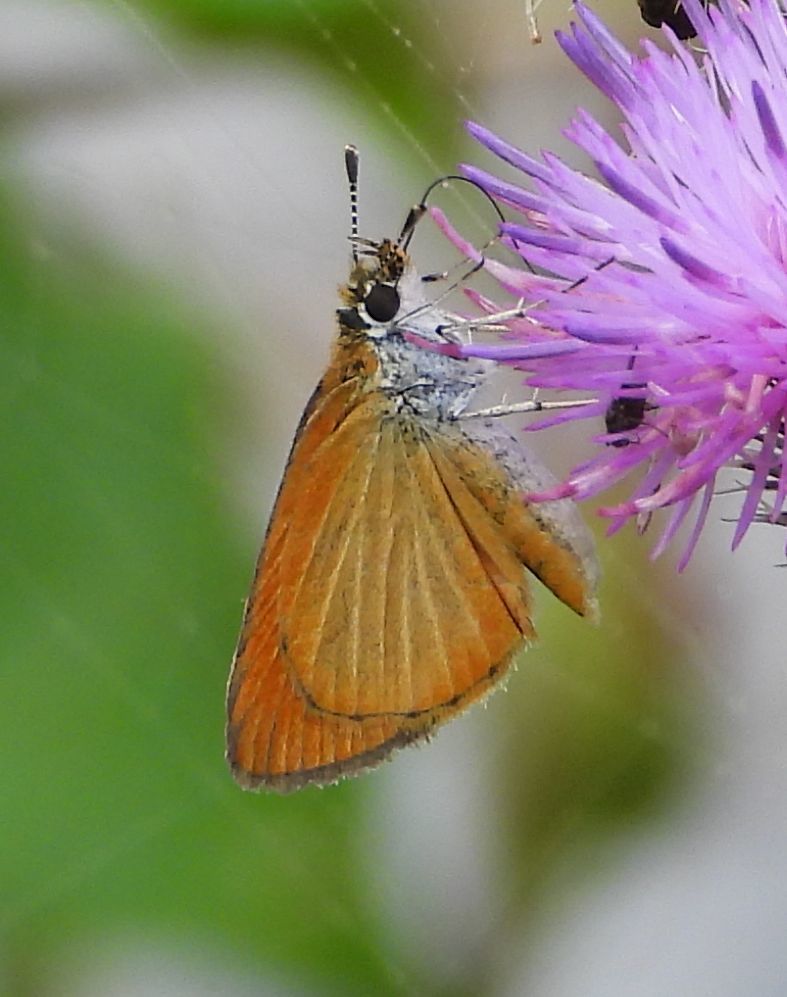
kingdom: Animalia
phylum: Arthropoda
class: Insecta
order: Lepidoptera
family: Hesperiidae
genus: Ancyloxypha
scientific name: Ancyloxypha numitor
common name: Least skipper
